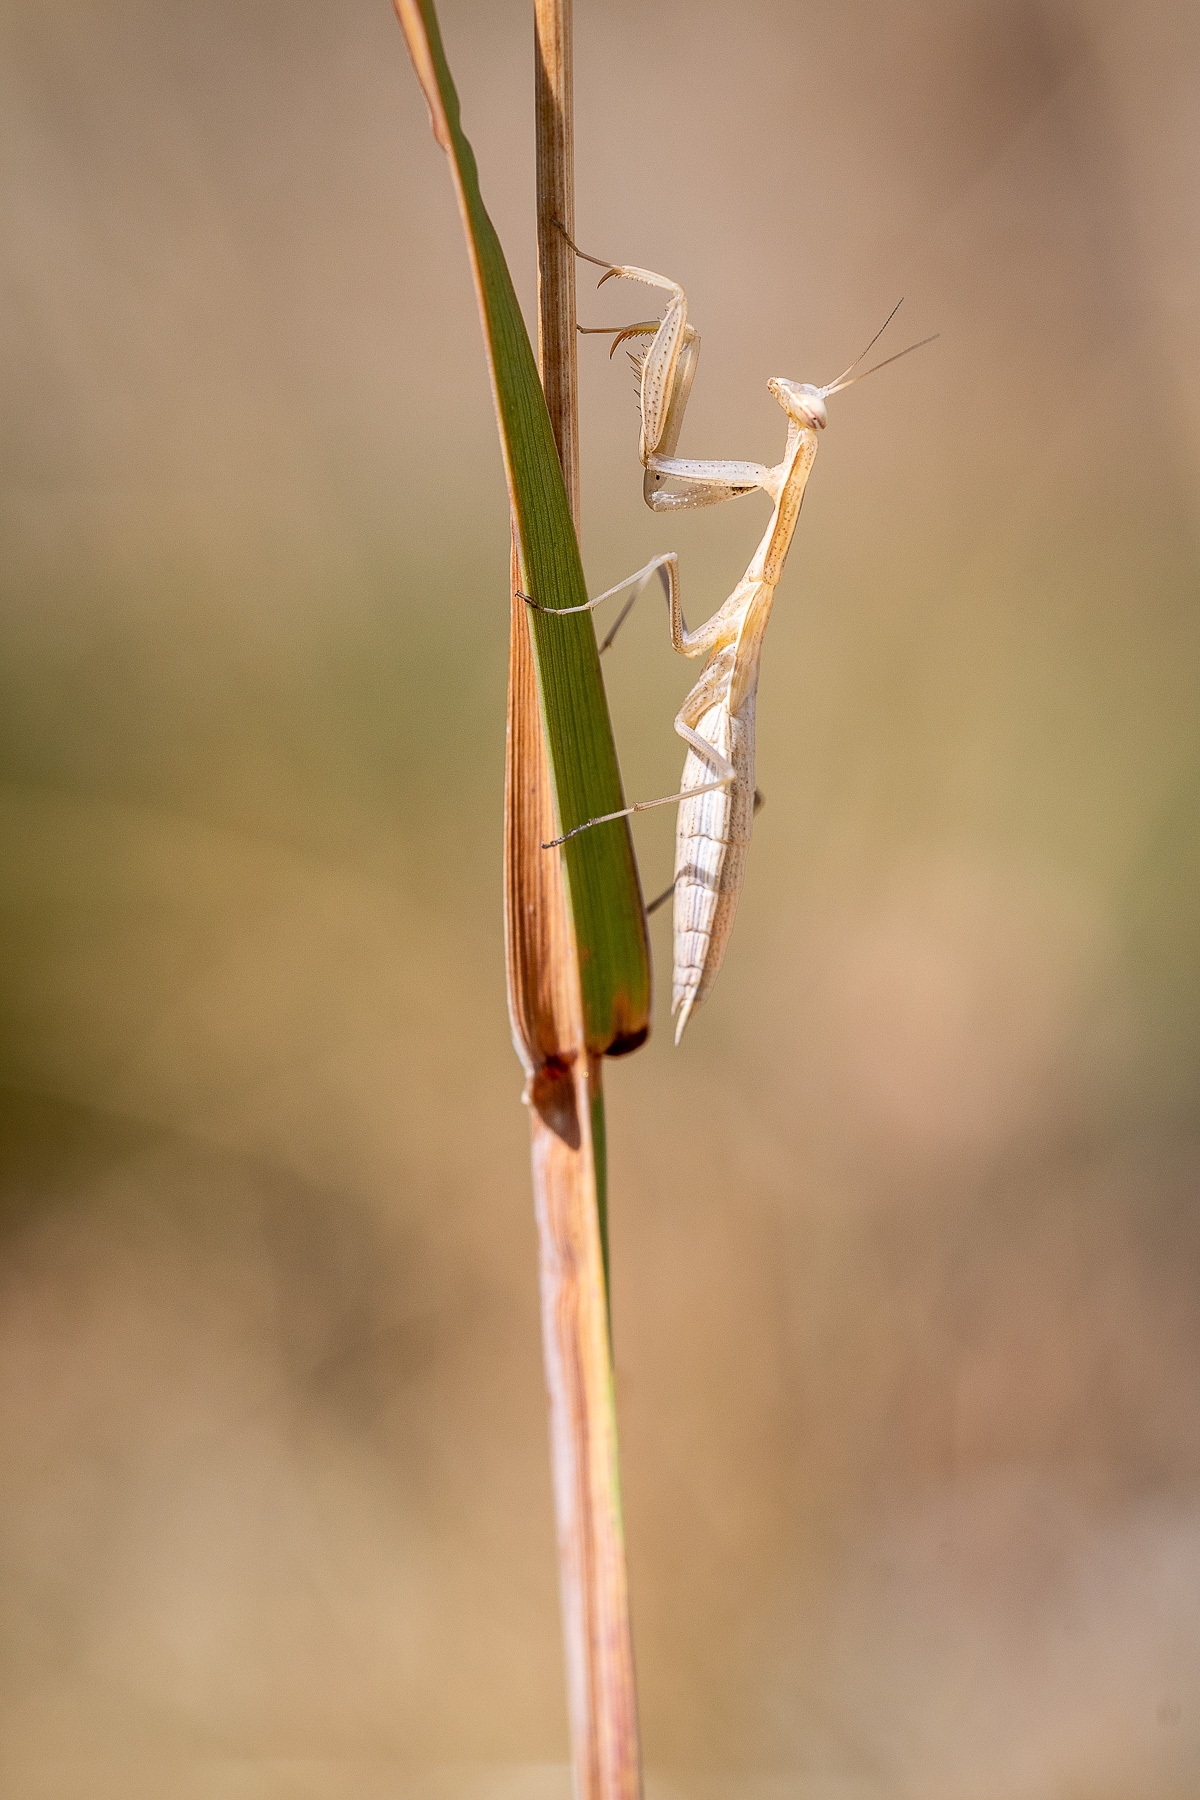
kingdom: Animalia
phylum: Arthropoda
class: Insecta
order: Mantodea
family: Mantidae
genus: Mantis
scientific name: Mantis religiosa
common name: Praying mantis
